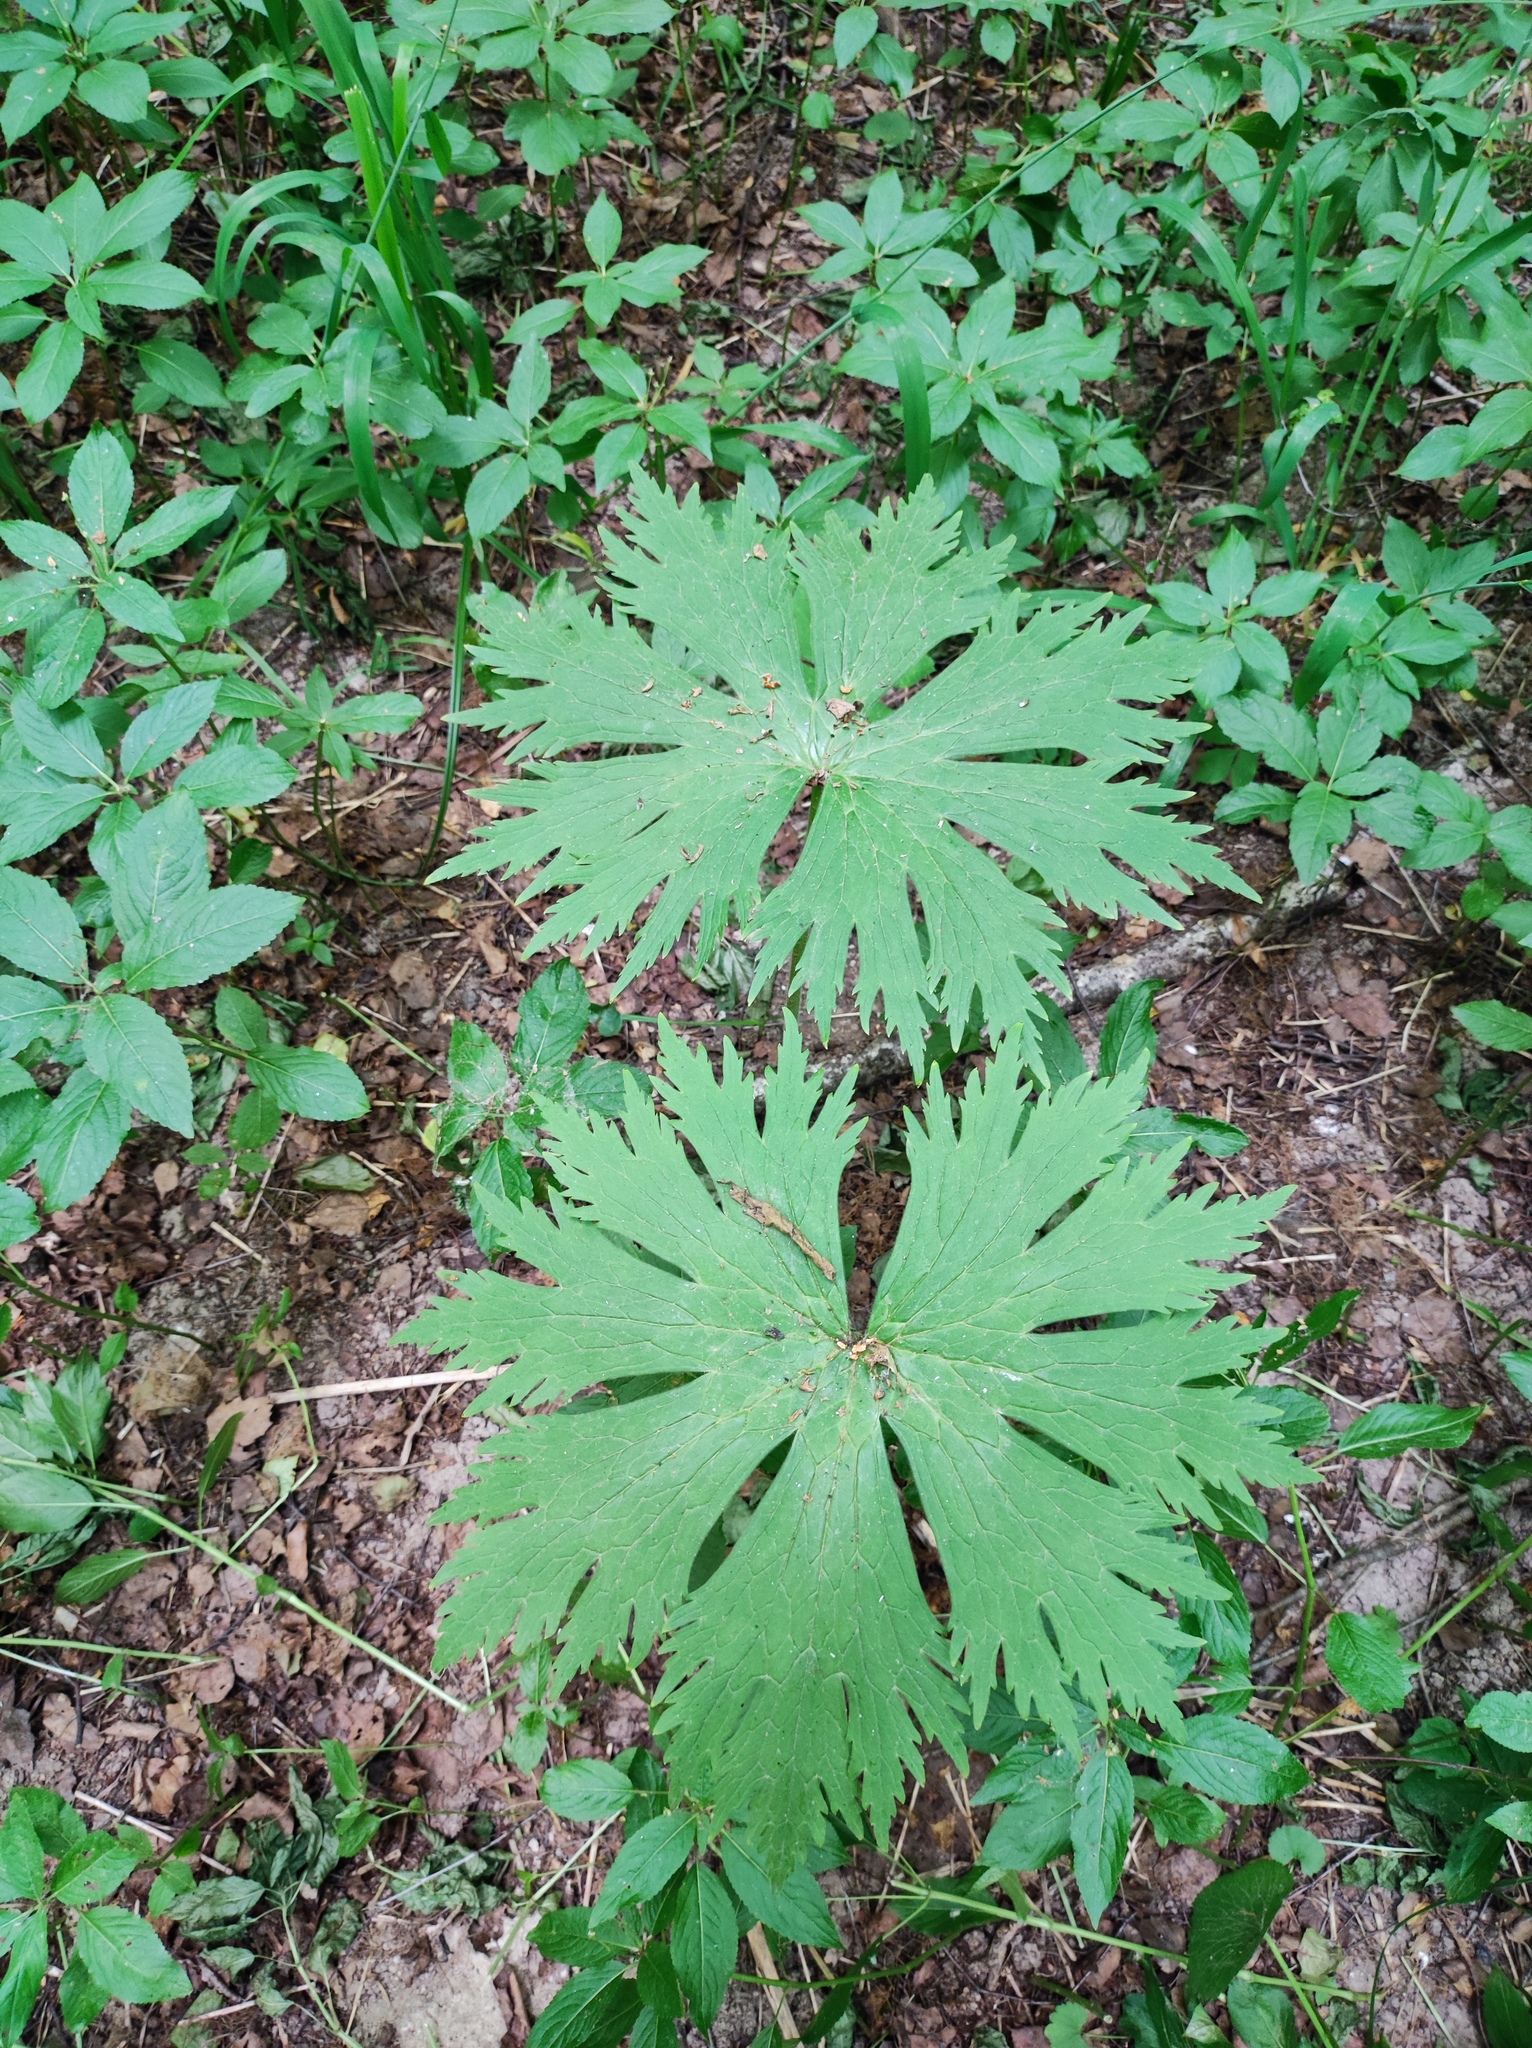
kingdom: Plantae
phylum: Tracheophyta
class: Magnoliopsida
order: Ranunculales
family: Ranunculaceae
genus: Aconitum
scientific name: Aconitum septentrionale
